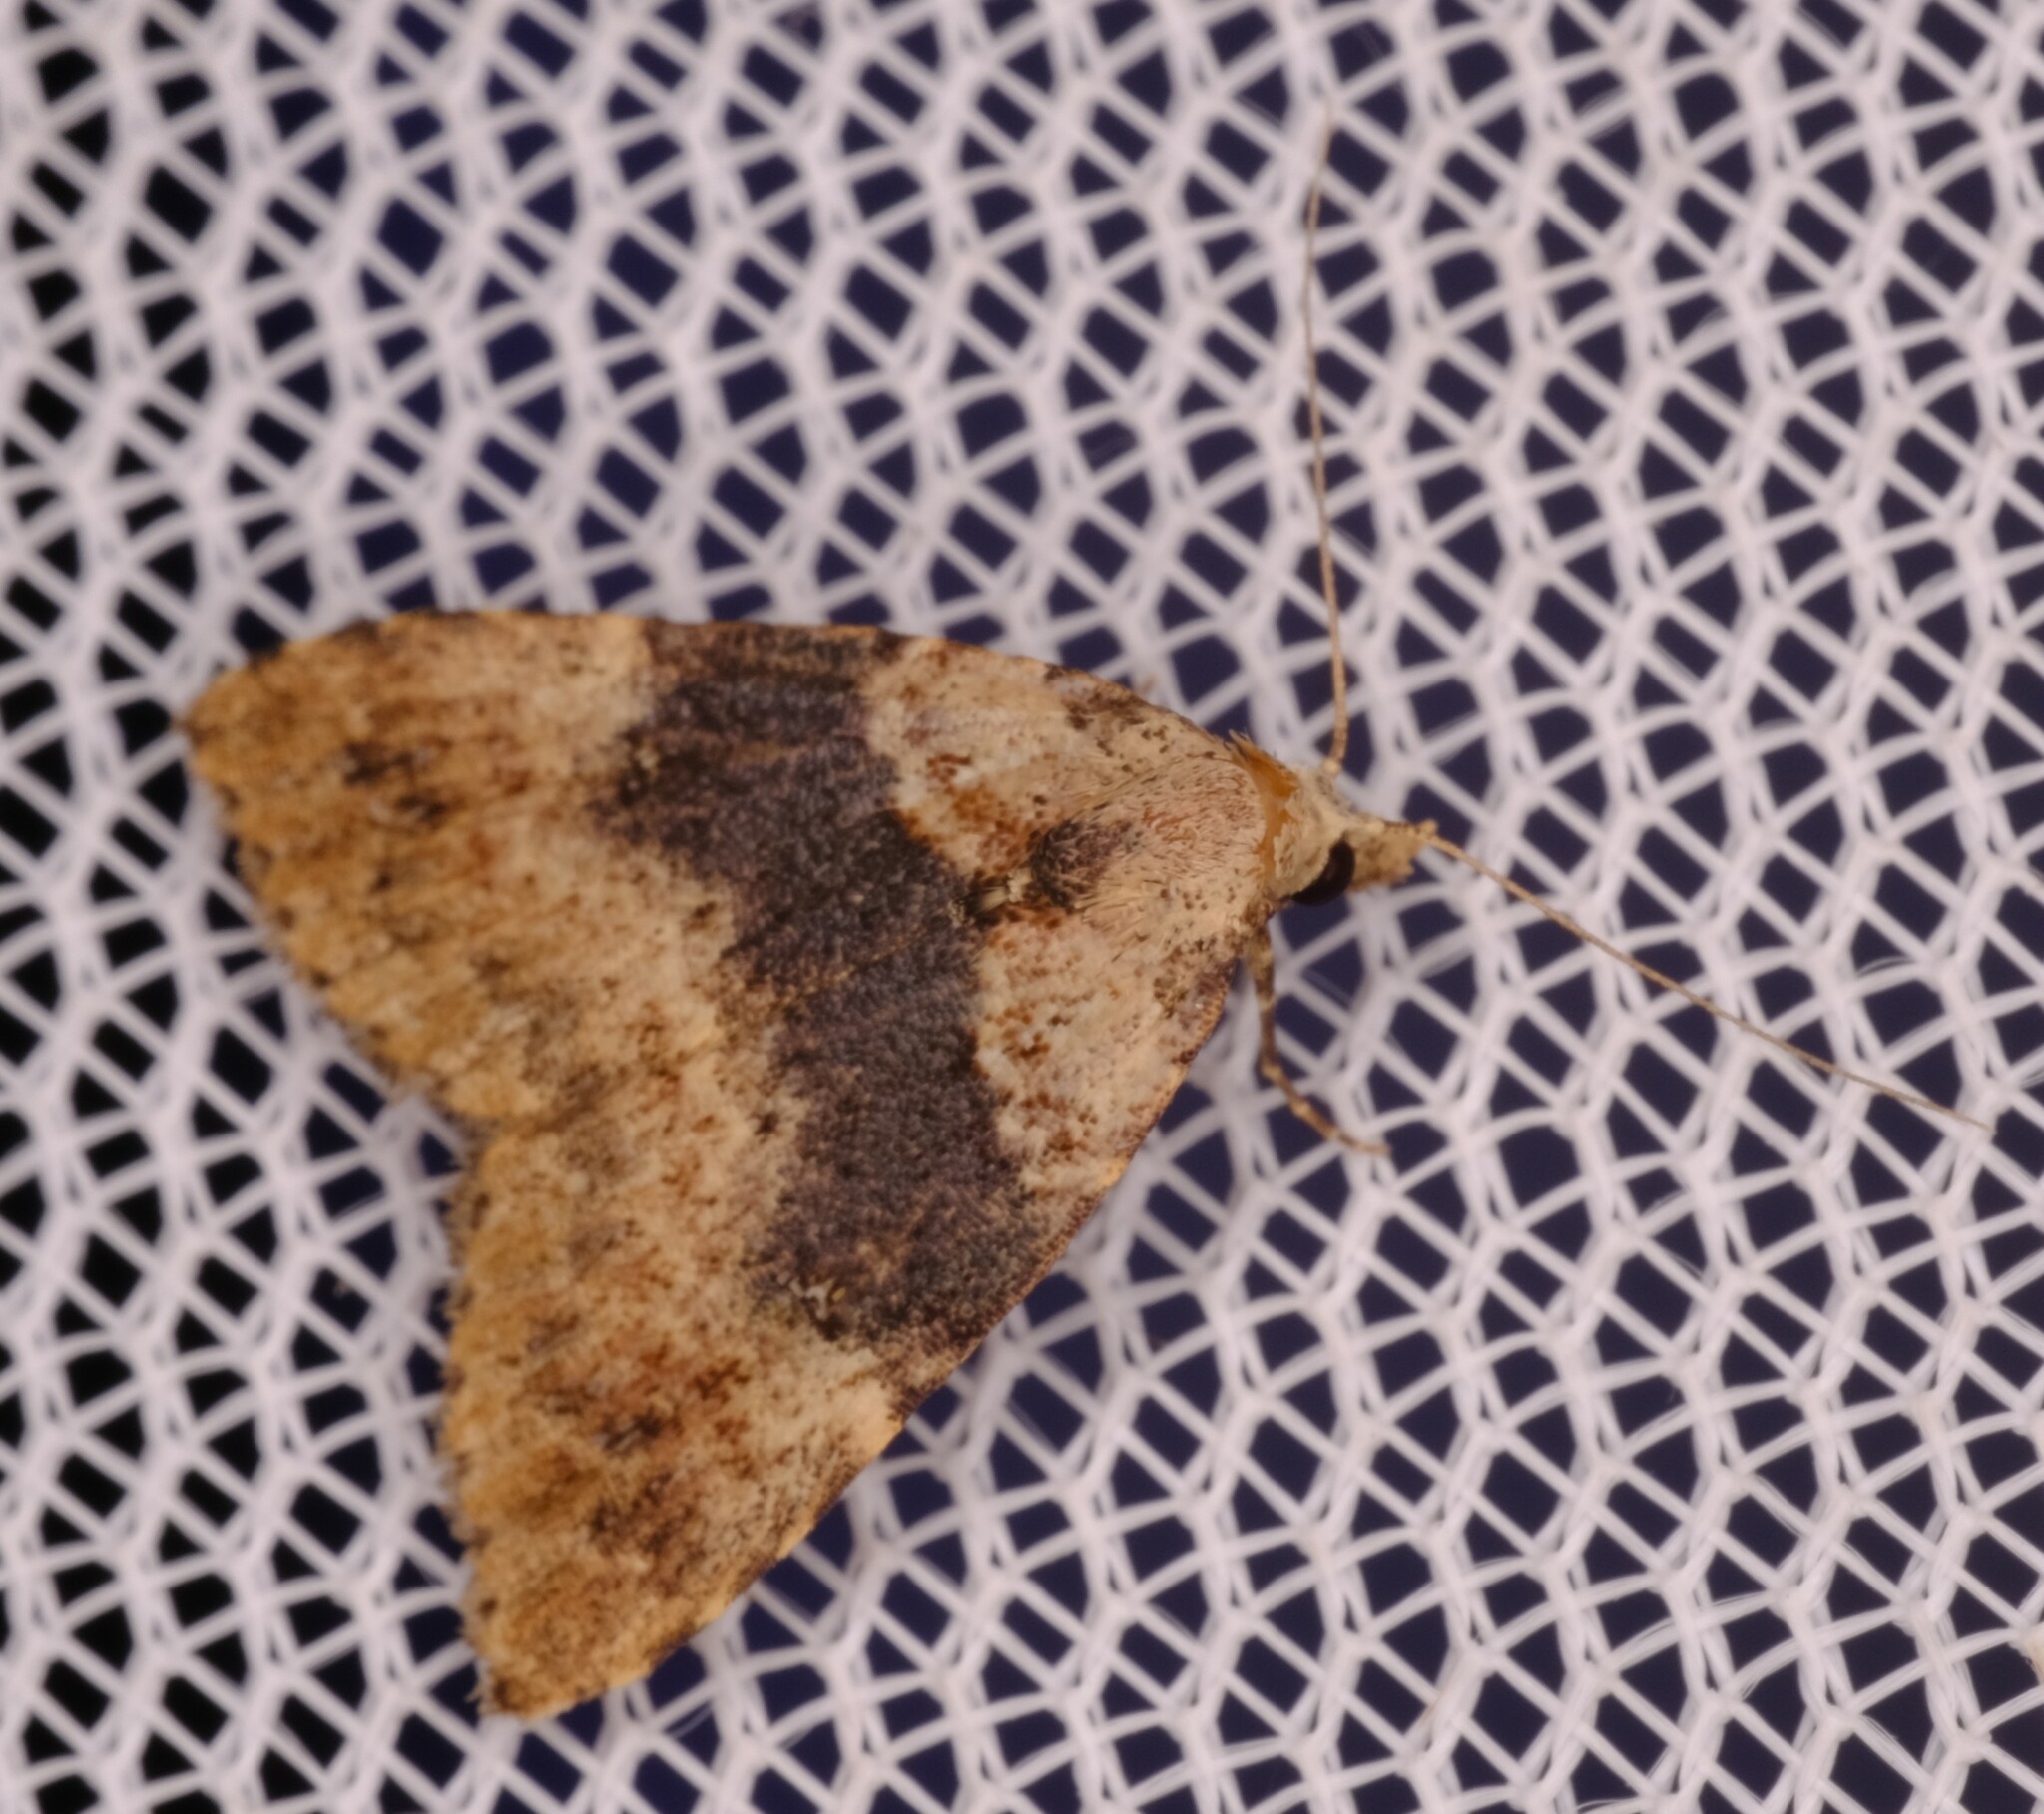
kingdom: Animalia
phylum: Arthropoda
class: Insecta
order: Lepidoptera
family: Erebidae
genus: Alapadna
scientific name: Alapadna pauropis
